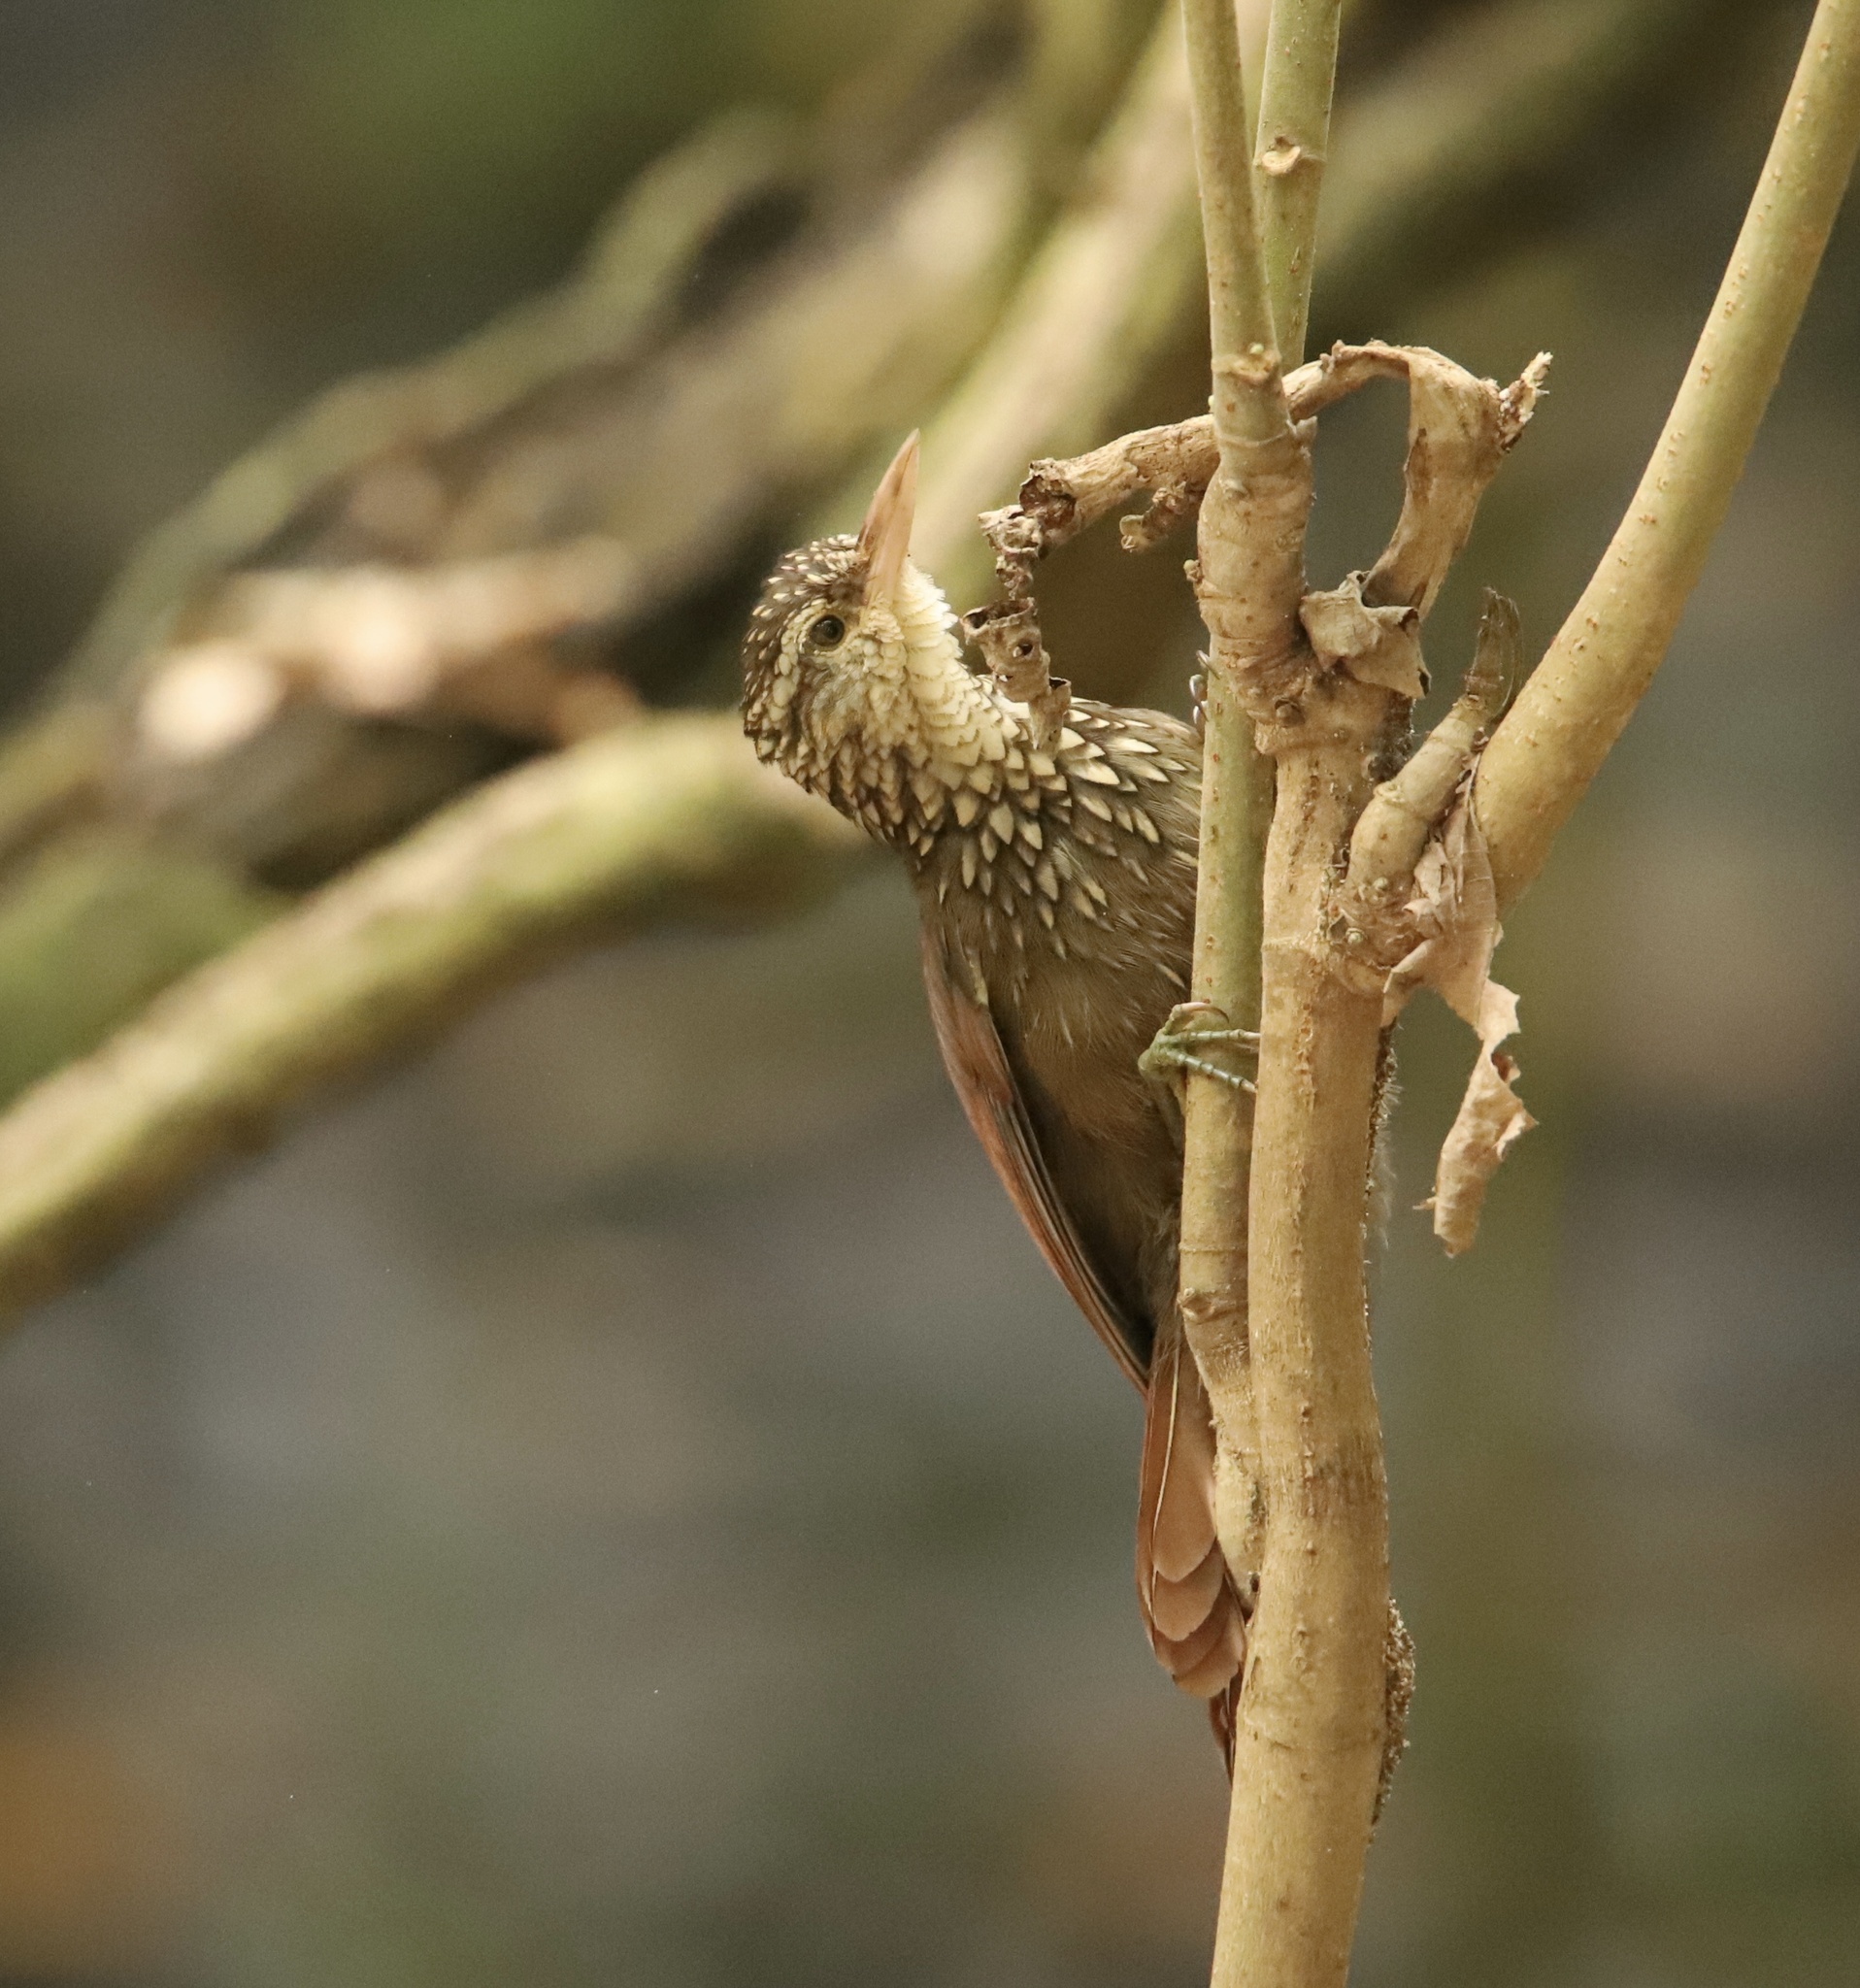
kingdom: Animalia
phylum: Chordata
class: Aves
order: Passeriformes
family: Furnariidae
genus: Xiphorhynchus
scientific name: Xiphorhynchus picus
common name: Straight-billed woodcreeper
